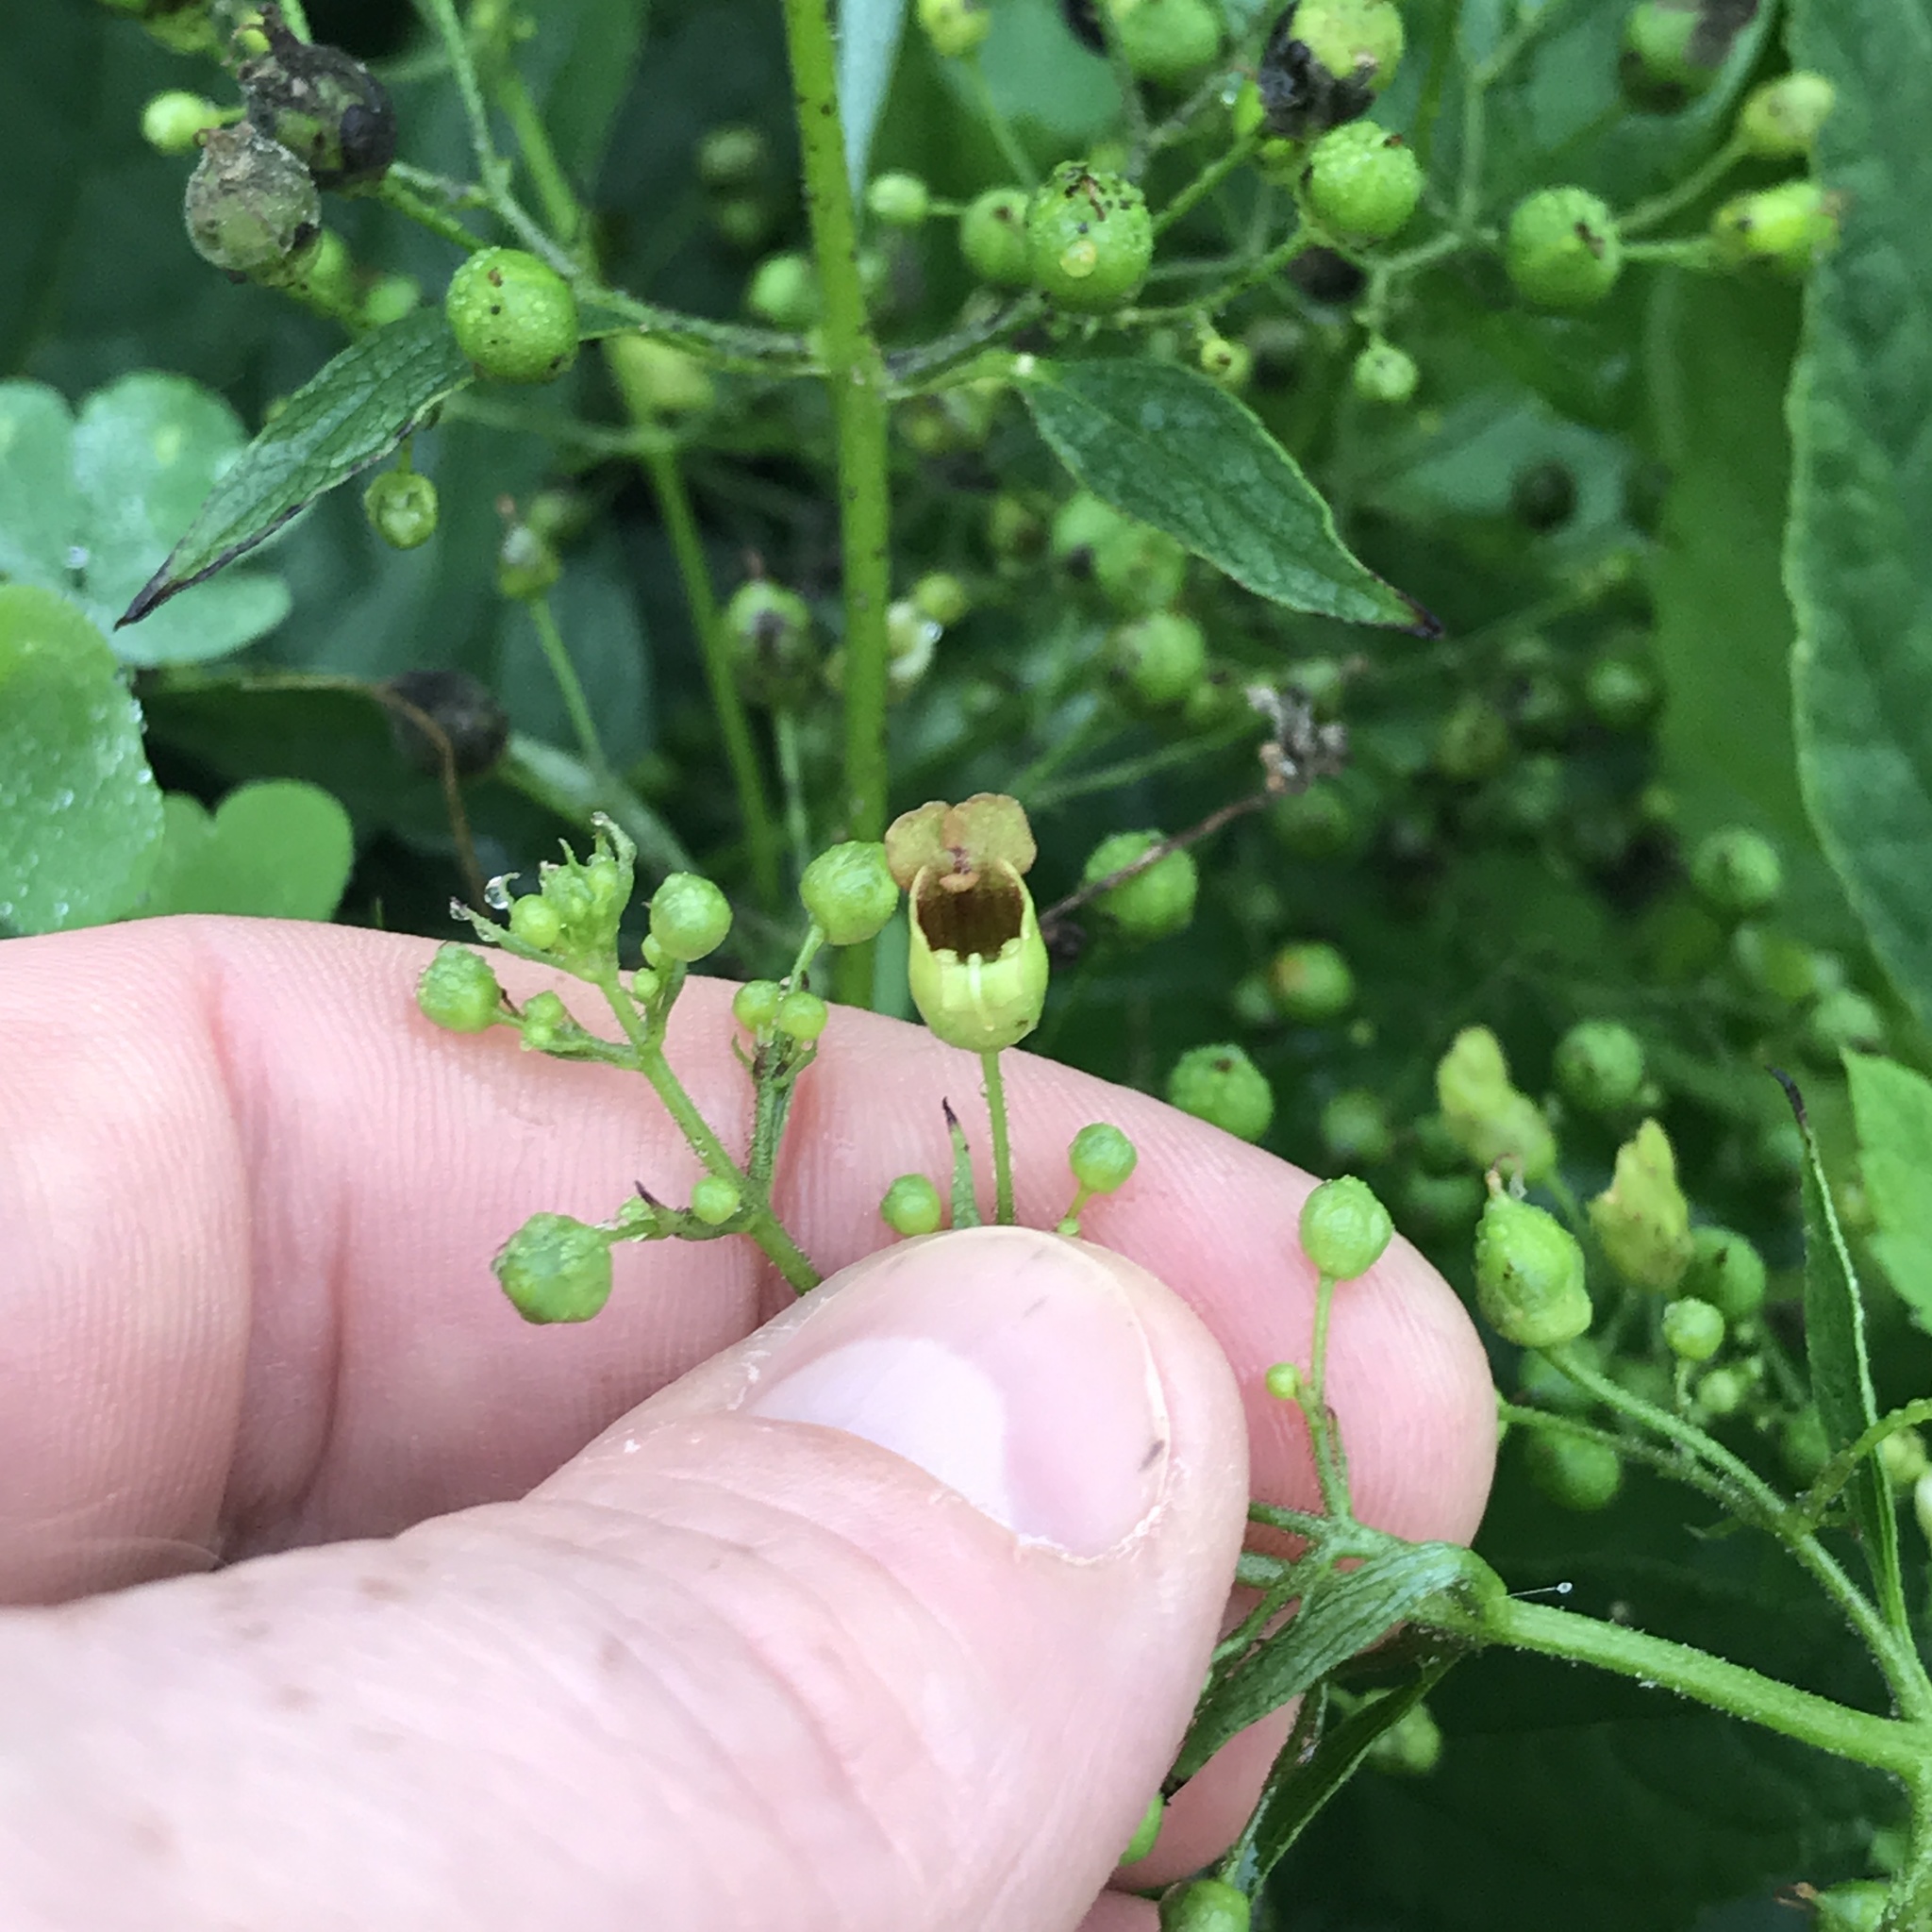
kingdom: Plantae
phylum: Tracheophyta
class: Magnoliopsida
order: Lamiales
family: Scrophulariaceae
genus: Scrophularia
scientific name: Scrophularia marilandica
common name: Eastern figwort
